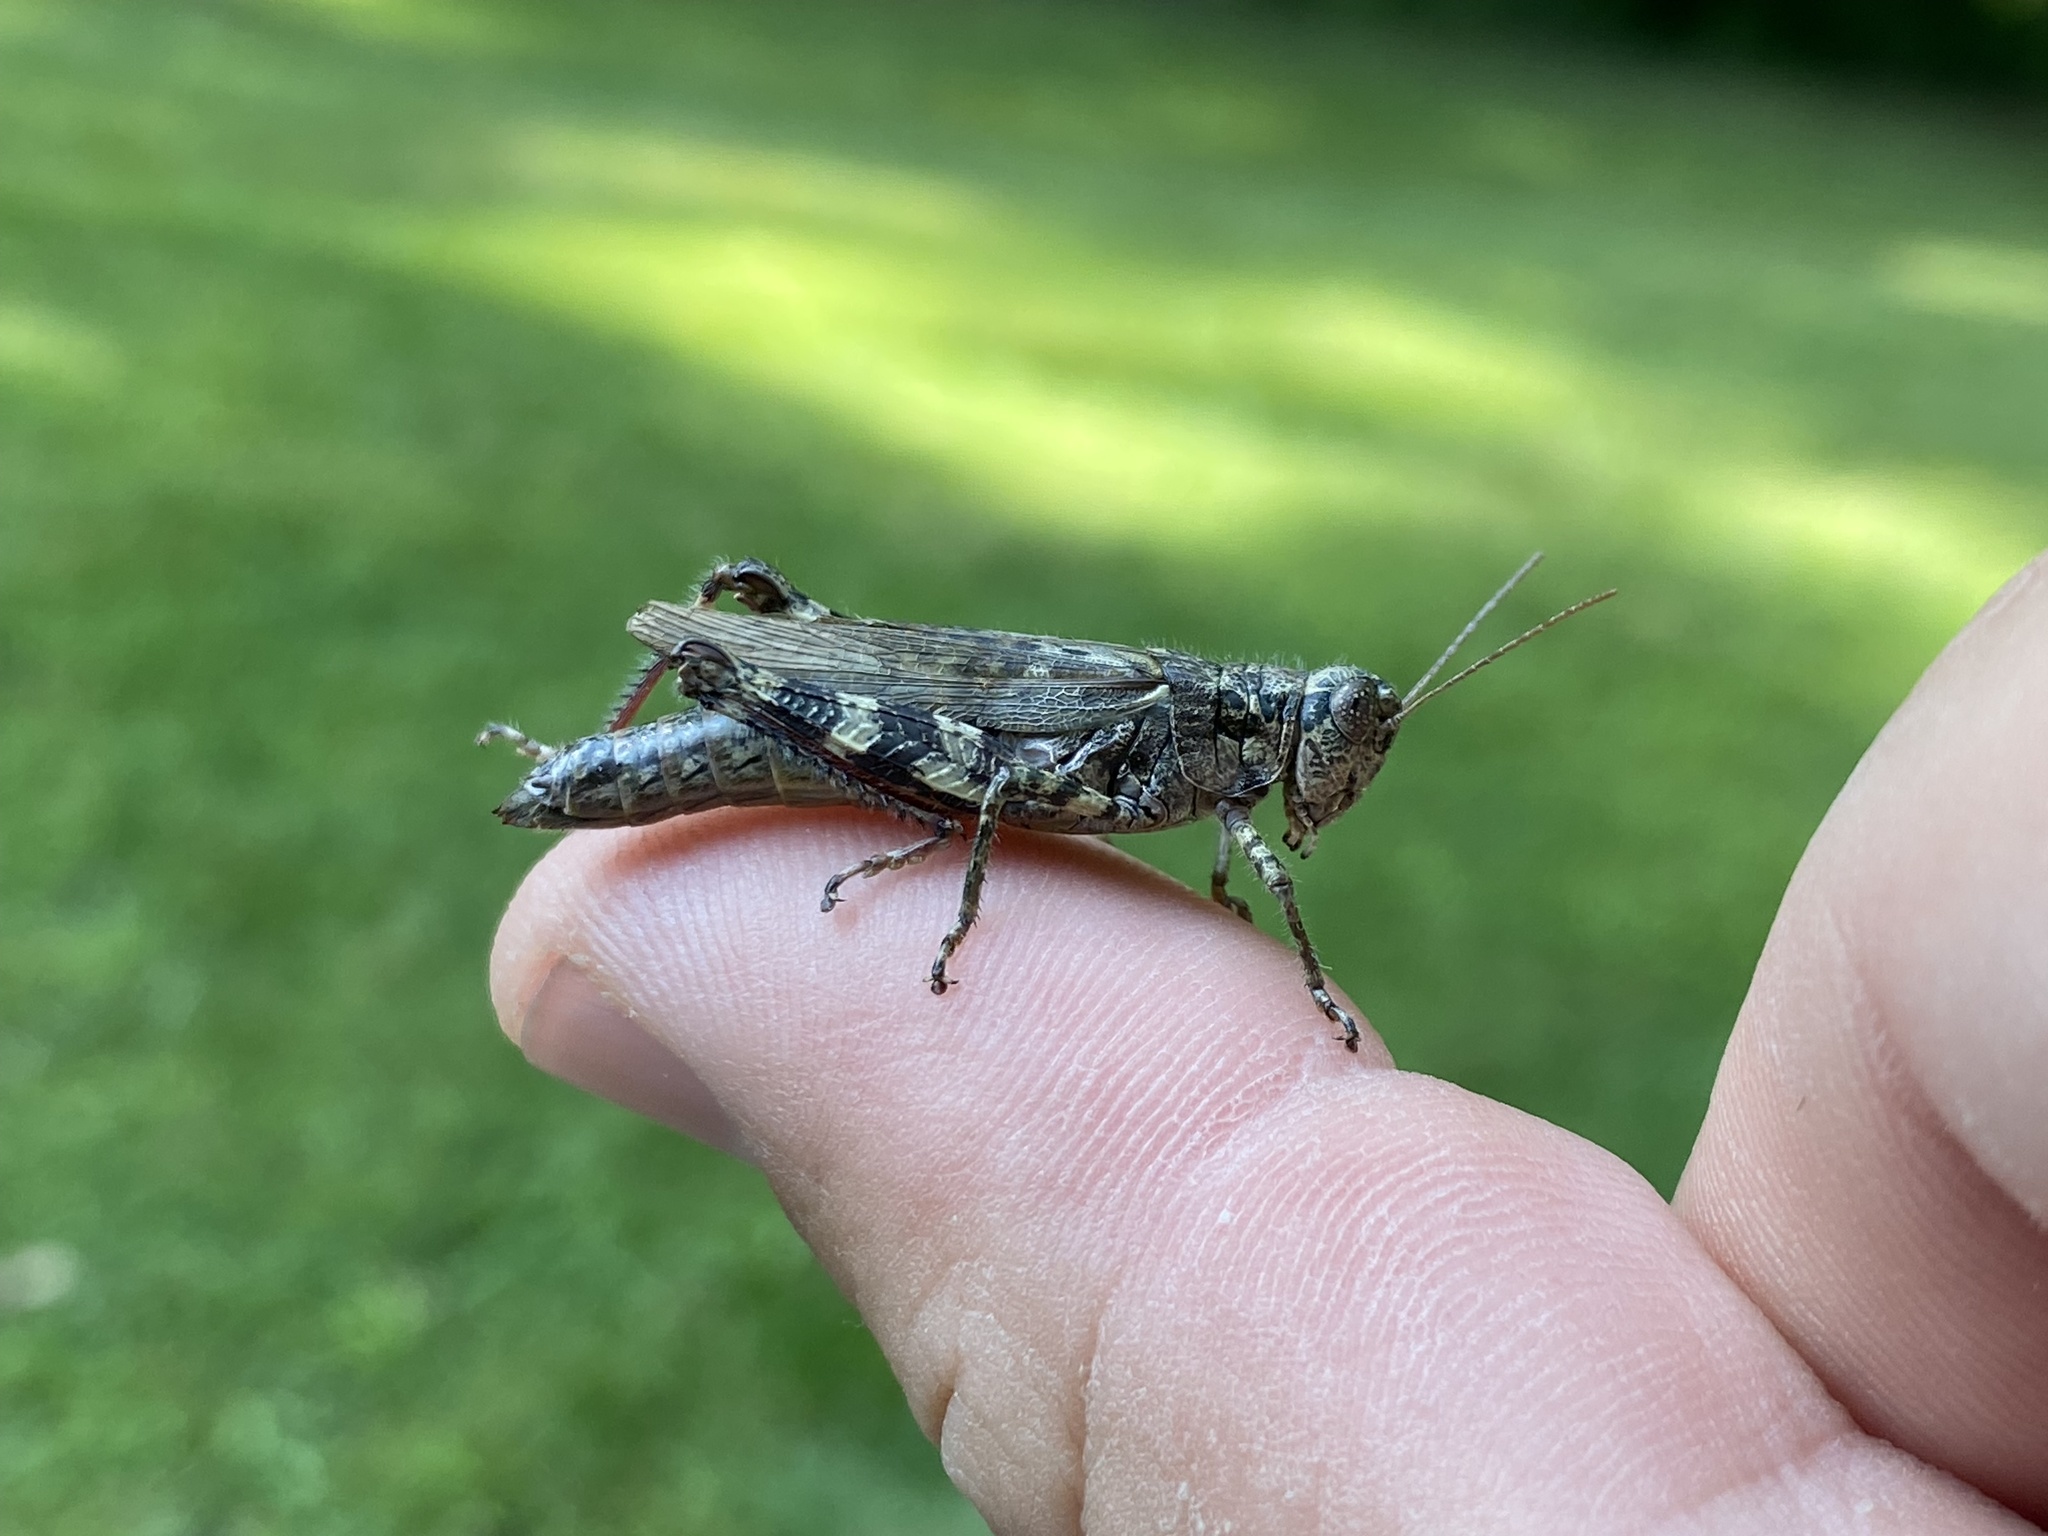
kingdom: Animalia
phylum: Arthropoda
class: Insecta
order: Orthoptera
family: Acrididae
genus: Melanoplus
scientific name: Melanoplus punctulatus
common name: Pine-tree spur-throat grasshopper
